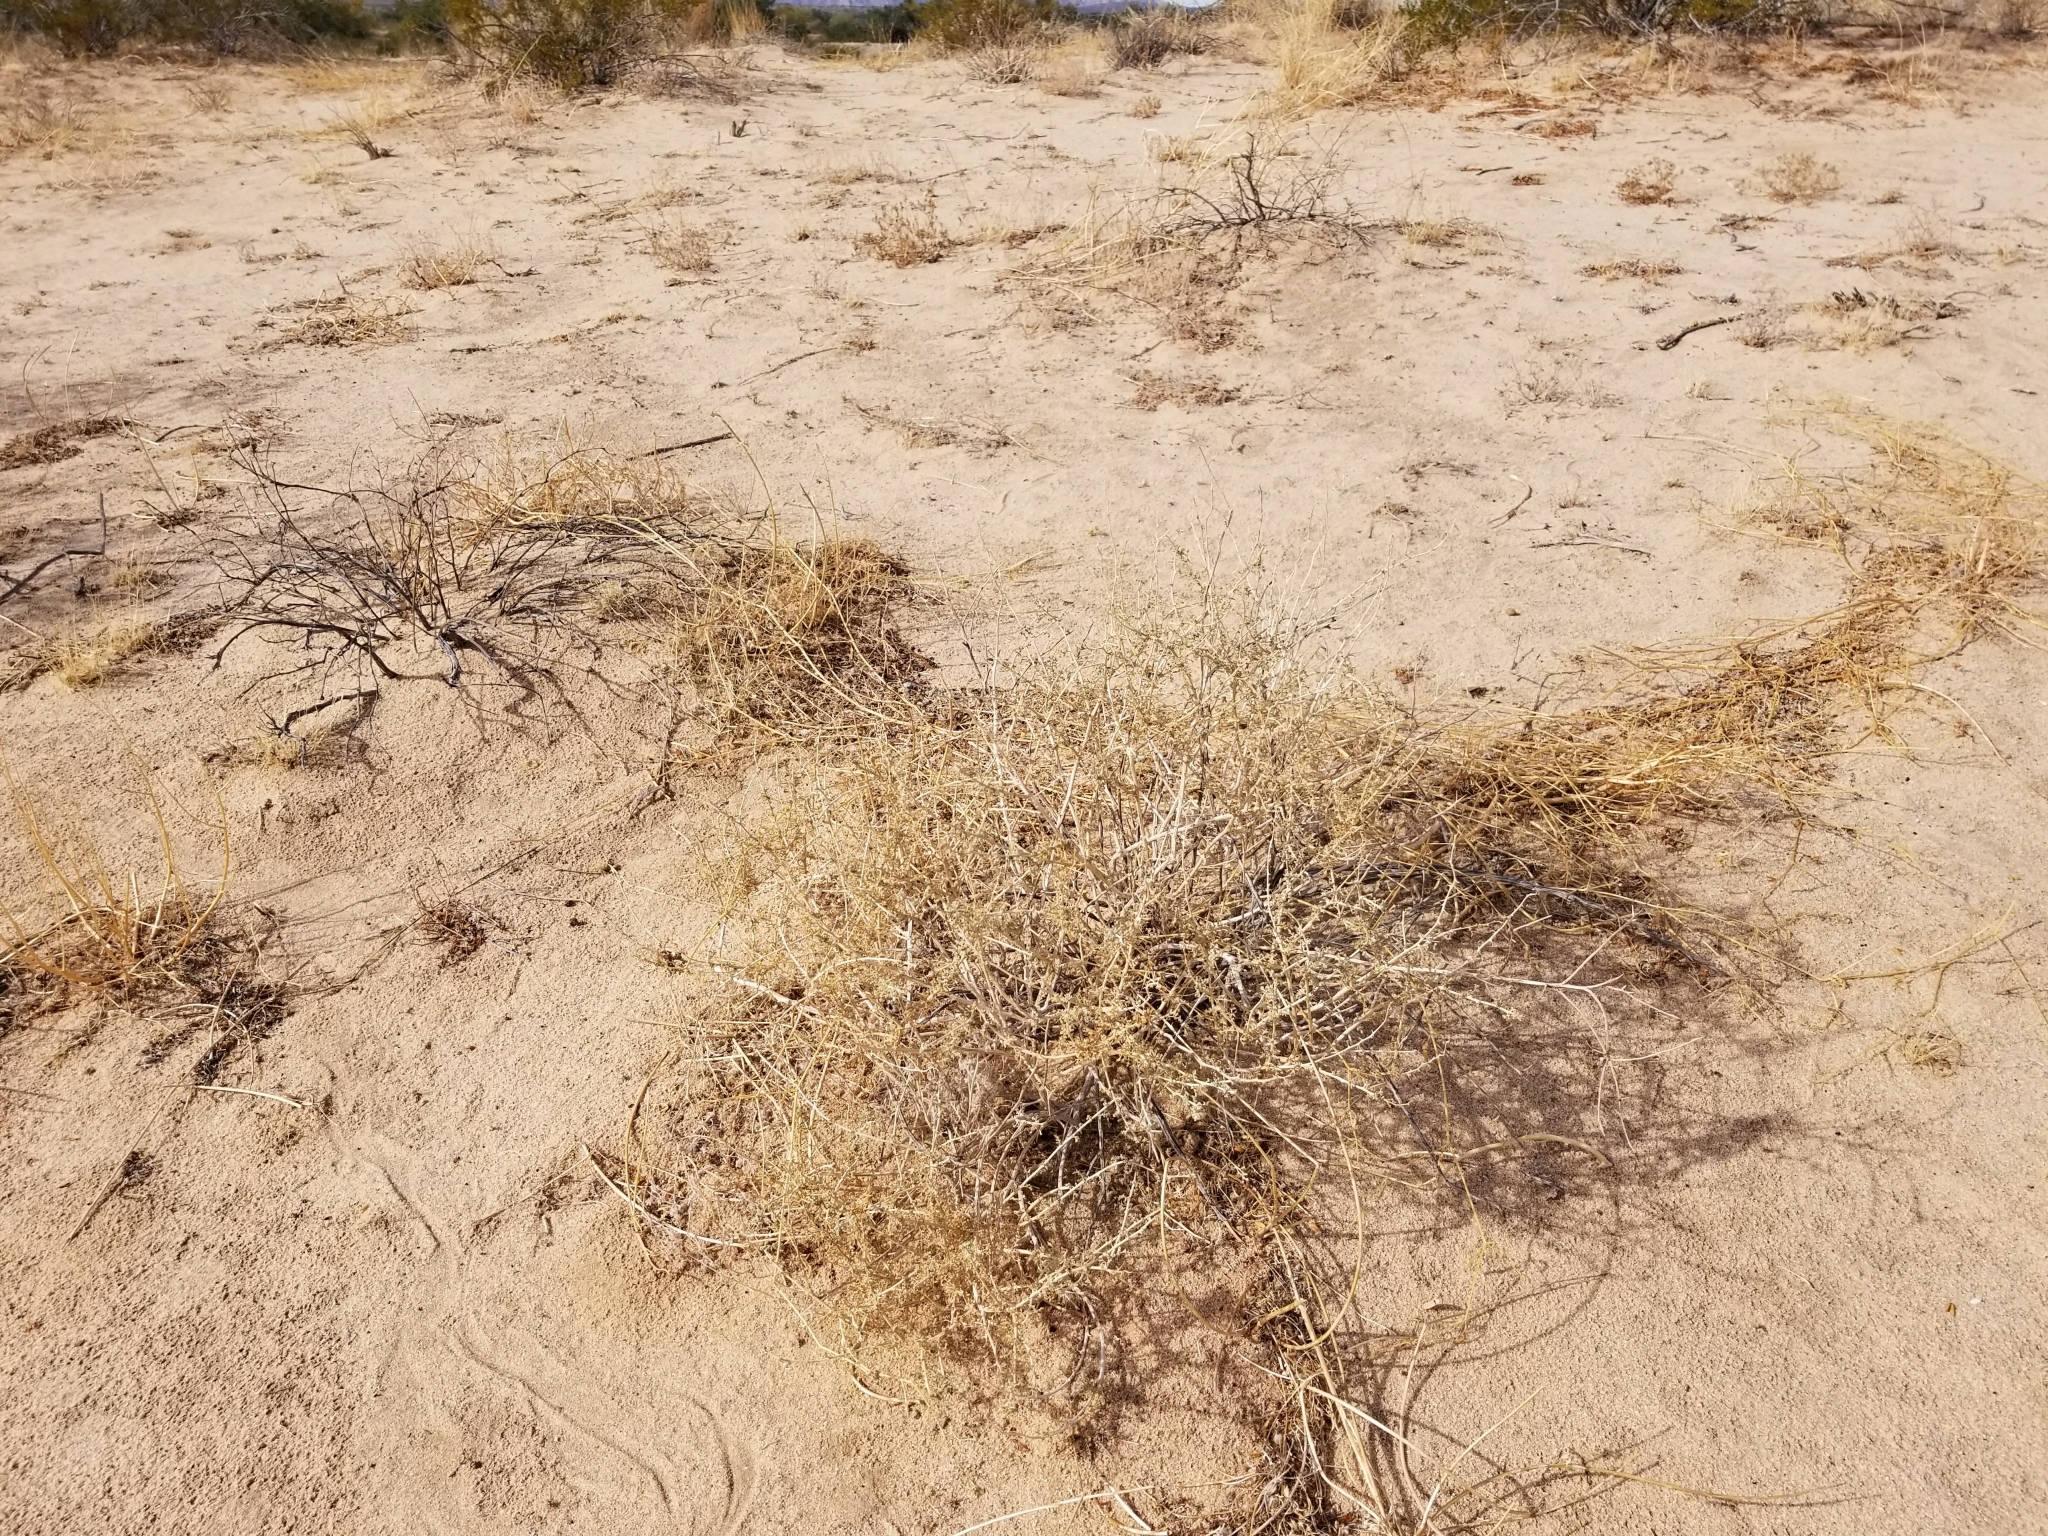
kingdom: Plantae
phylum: Tracheophyta
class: Magnoliopsida
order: Asterales
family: Asteraceae
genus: Ambrosia
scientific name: Ambrosia dumosa
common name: Bur-sage
